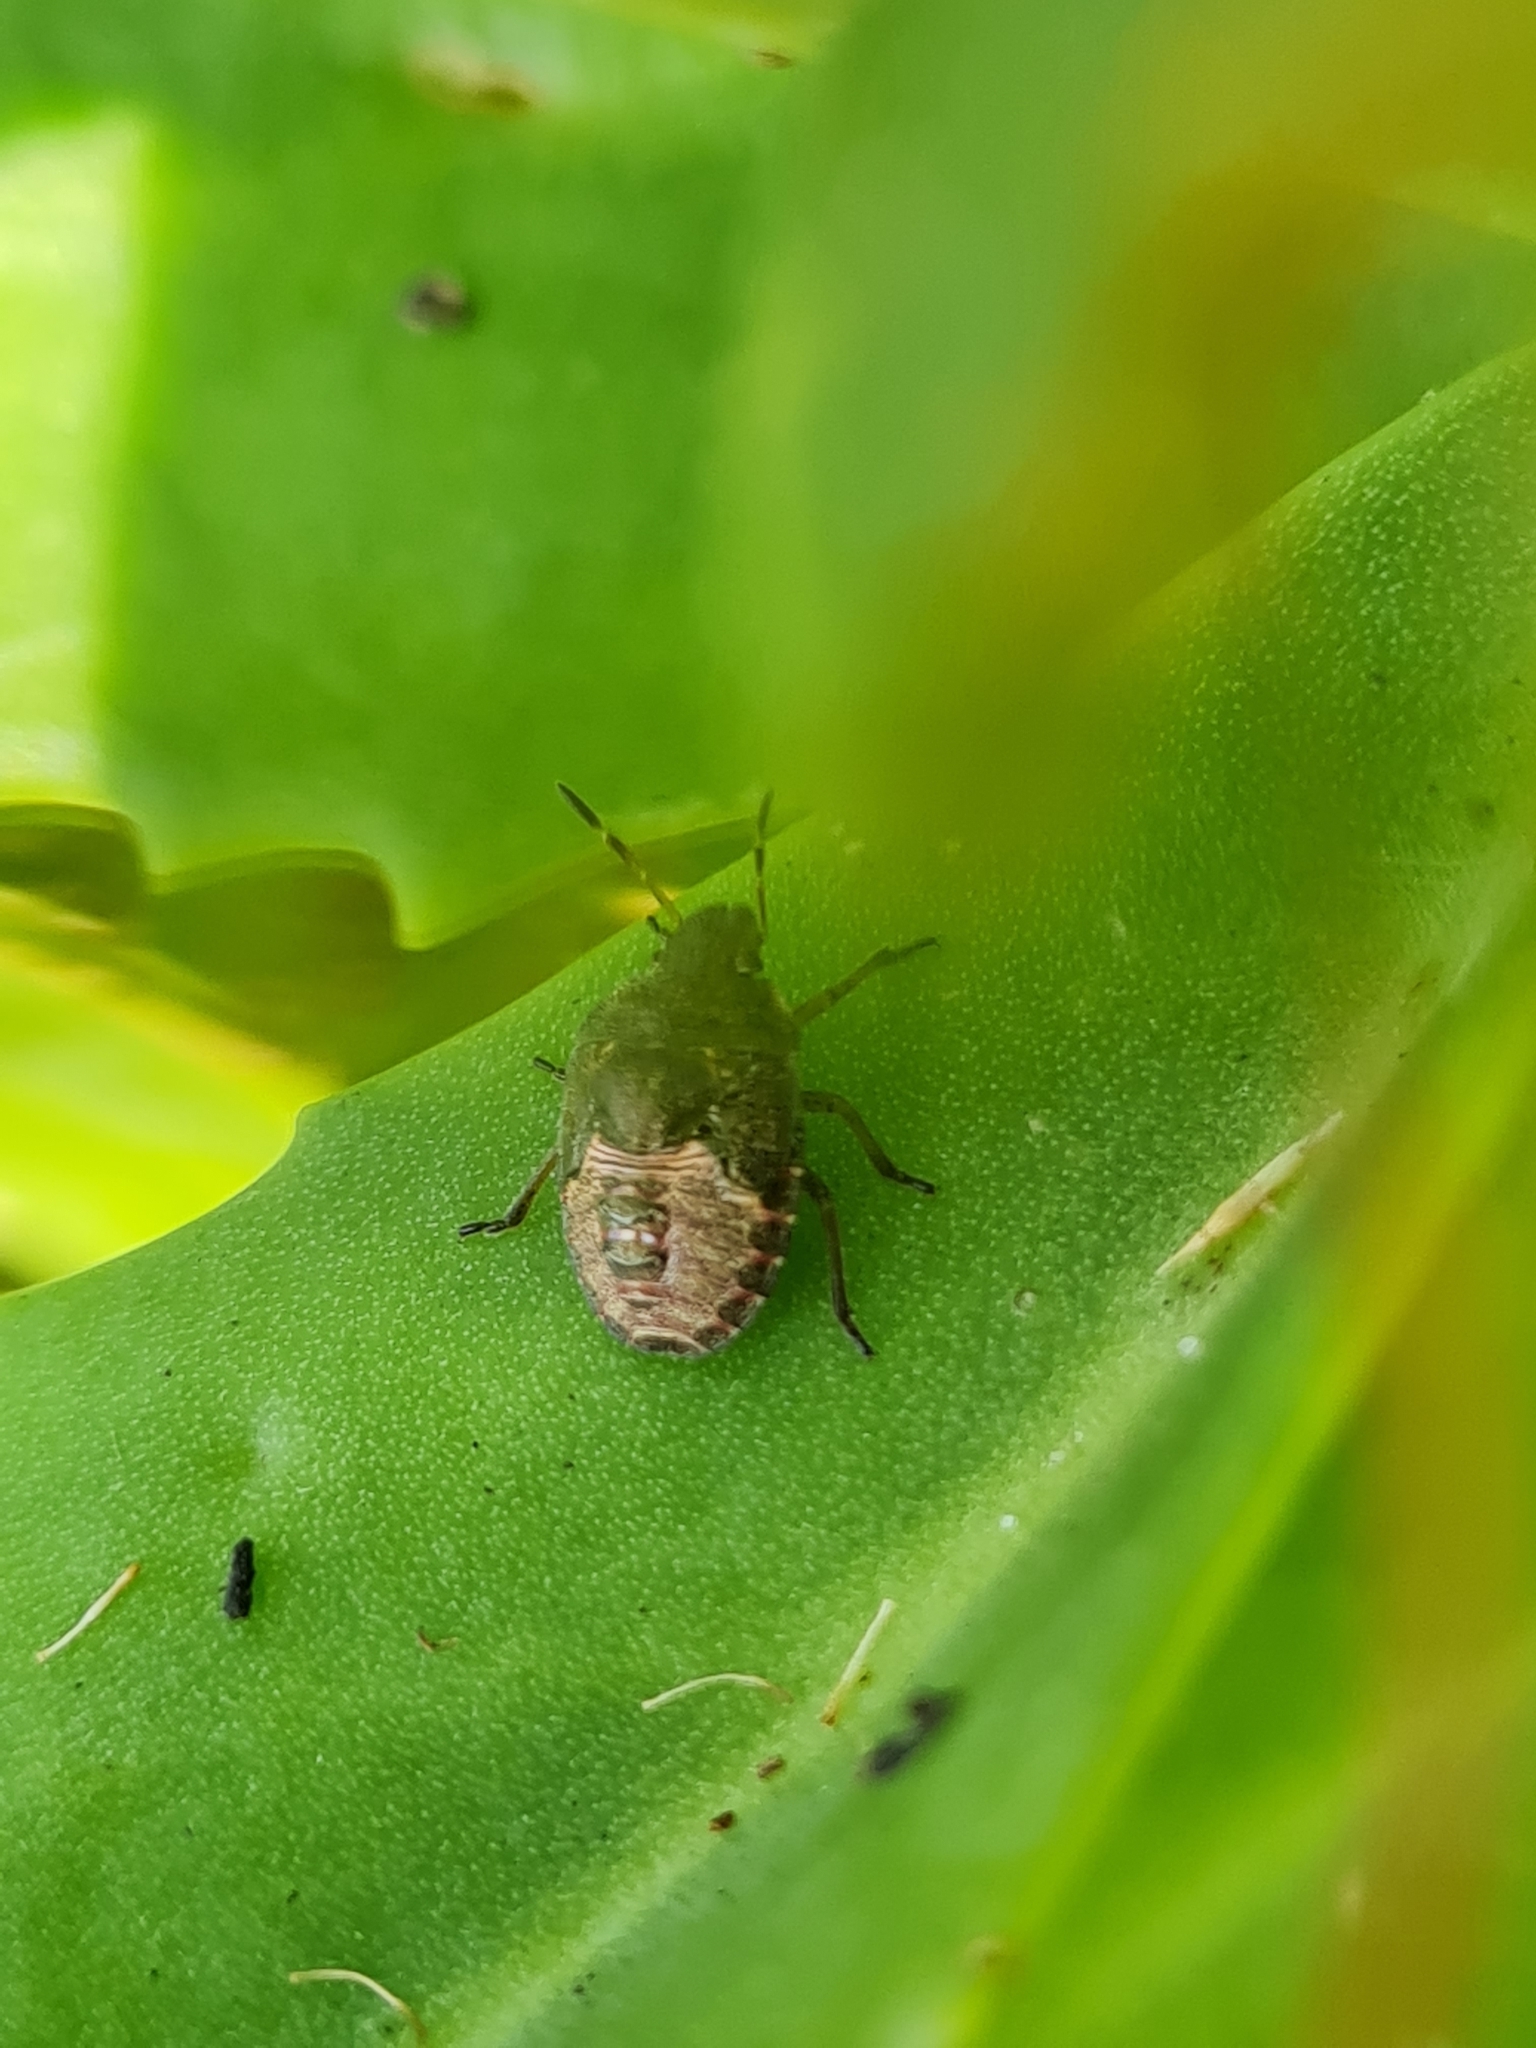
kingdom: Animalia
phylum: Arthropoda
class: Insecta
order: Hemiptera
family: Pentatomidae
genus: Holcostethus
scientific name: Holcostethus strictus
